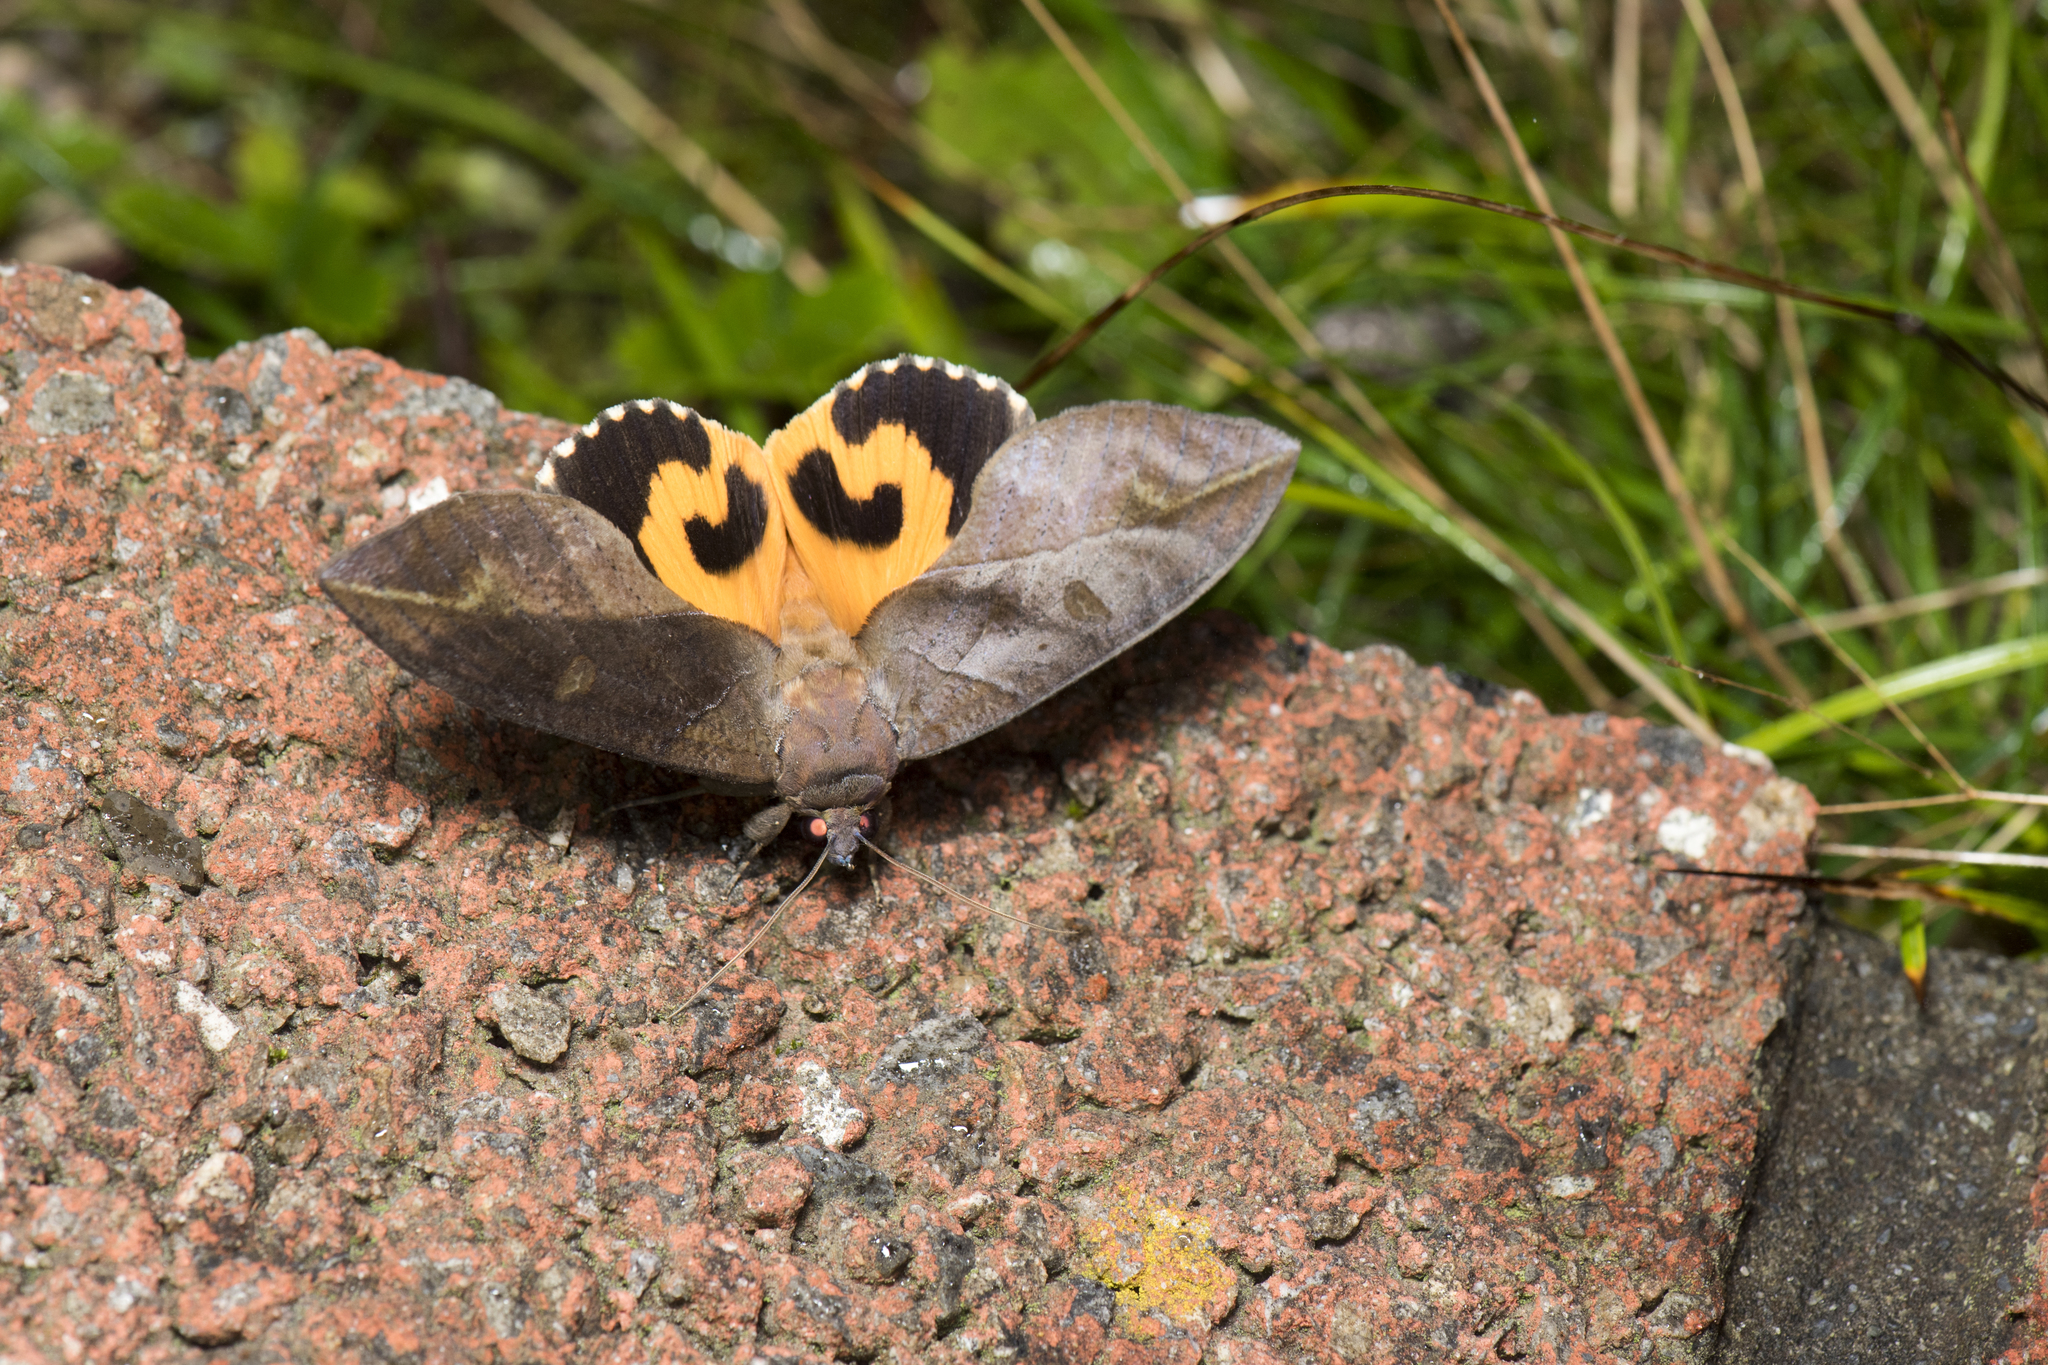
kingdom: Animalia
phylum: Arthropoda
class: Insecta
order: Lepidoptera
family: Erebidae
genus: Eudocima
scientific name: Eudocima phalonia
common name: Wasp
